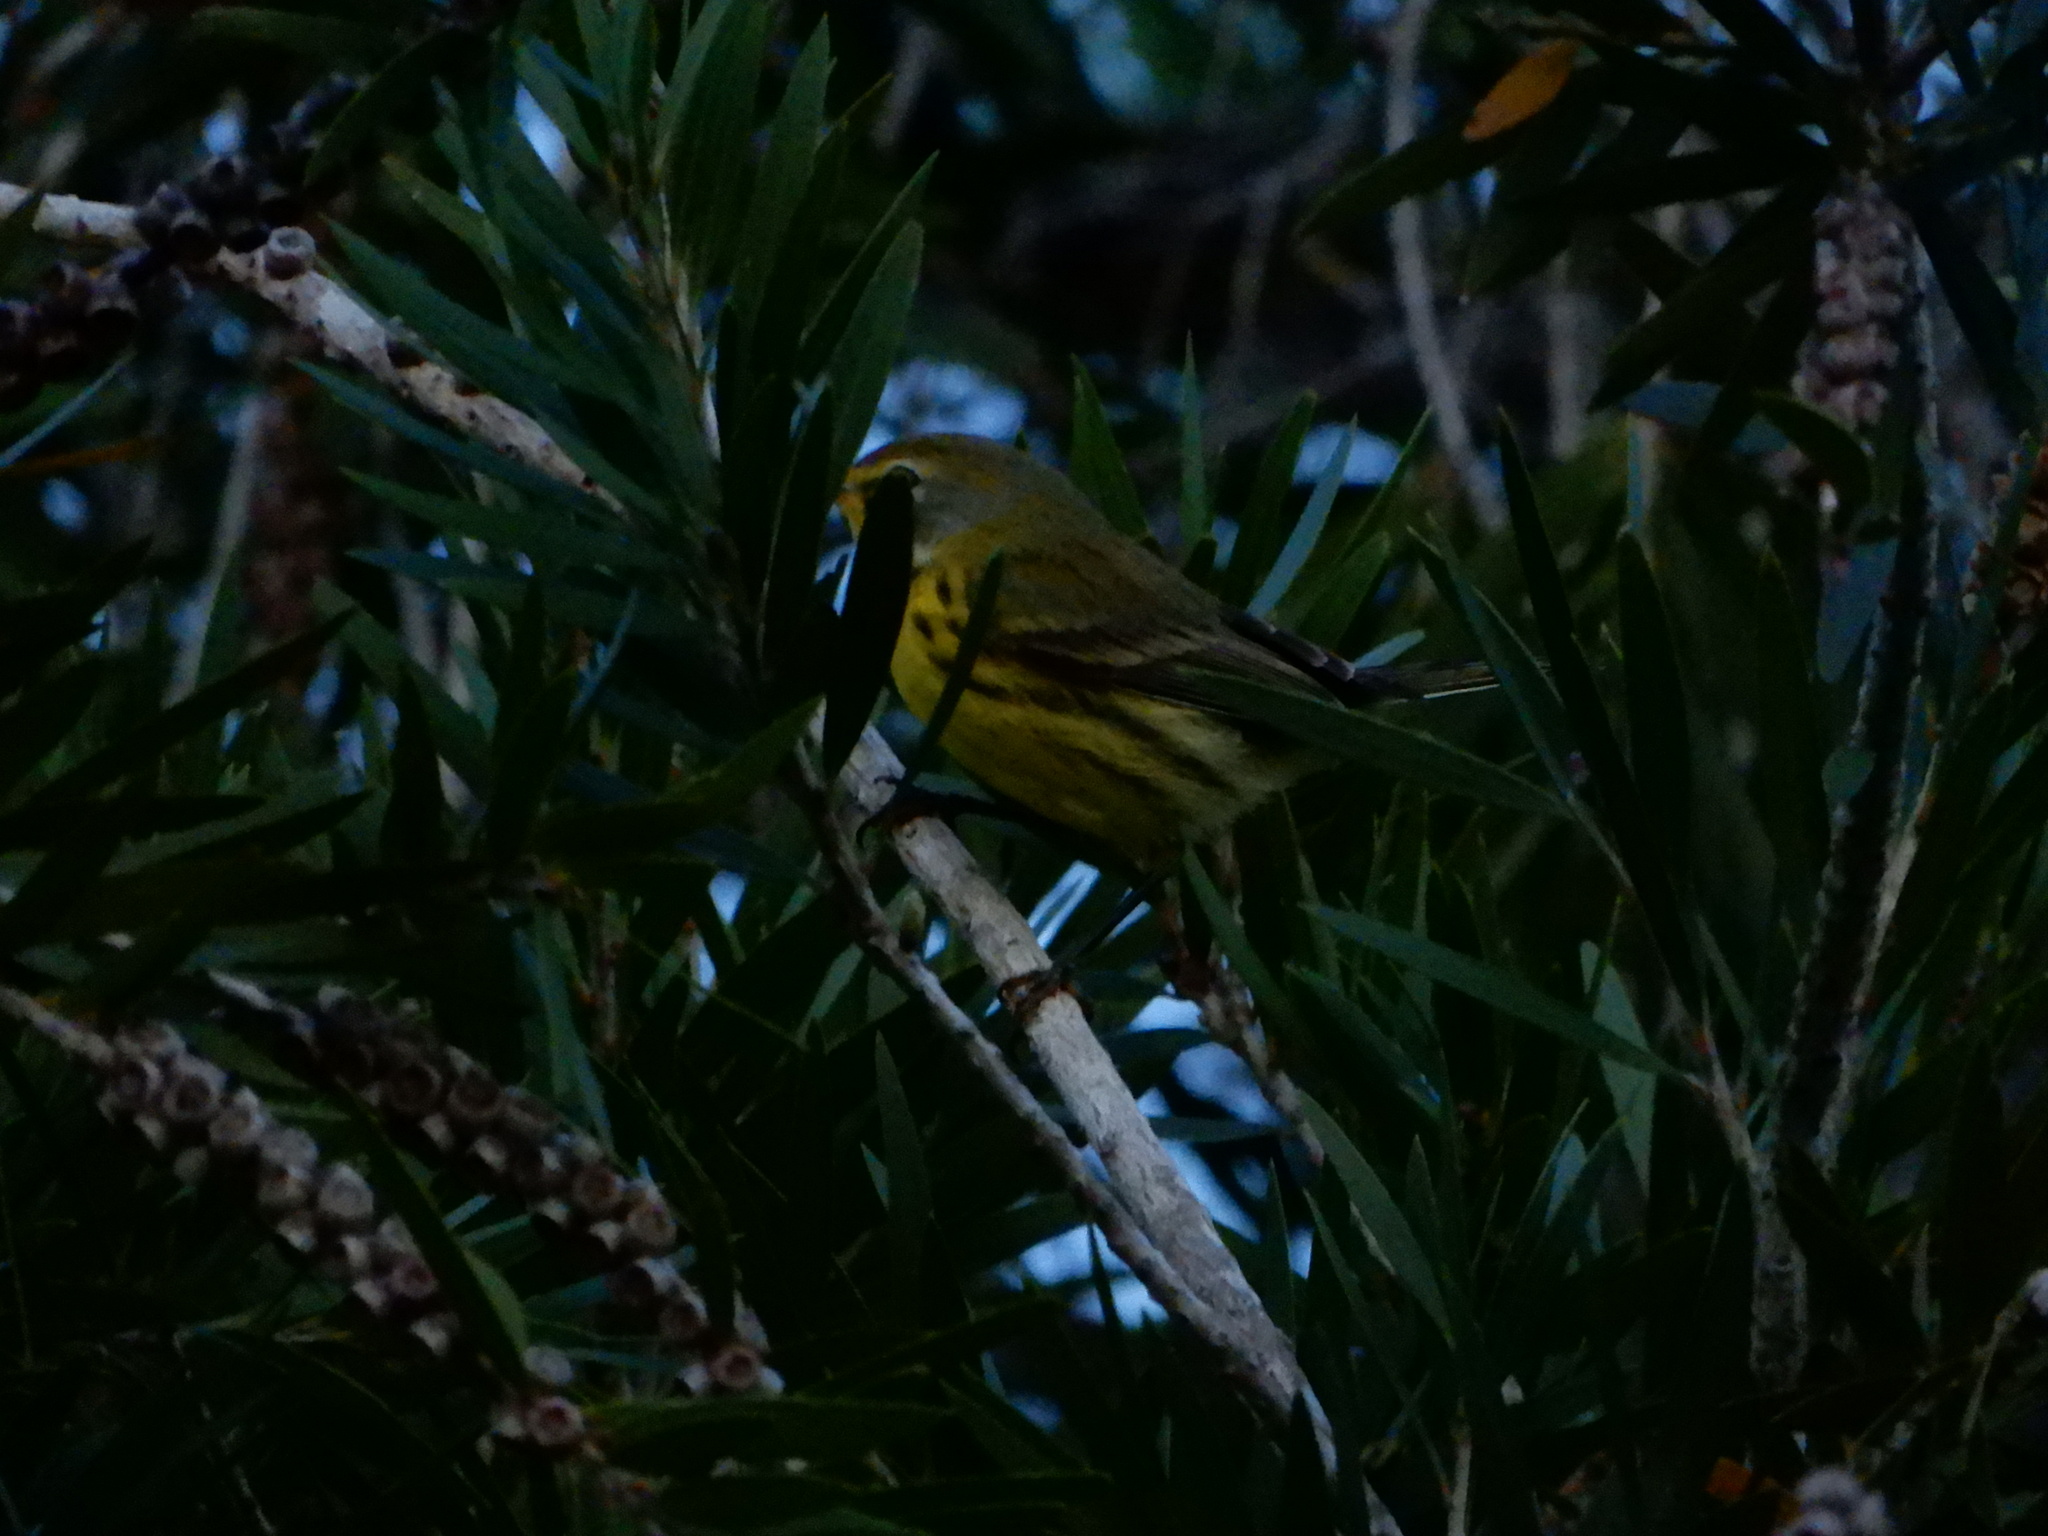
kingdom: Animalia
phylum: Chordata
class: Aves
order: Passeriformes
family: Parulidae
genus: Setophaga
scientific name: Setophaga discolor
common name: Prairie warbler
